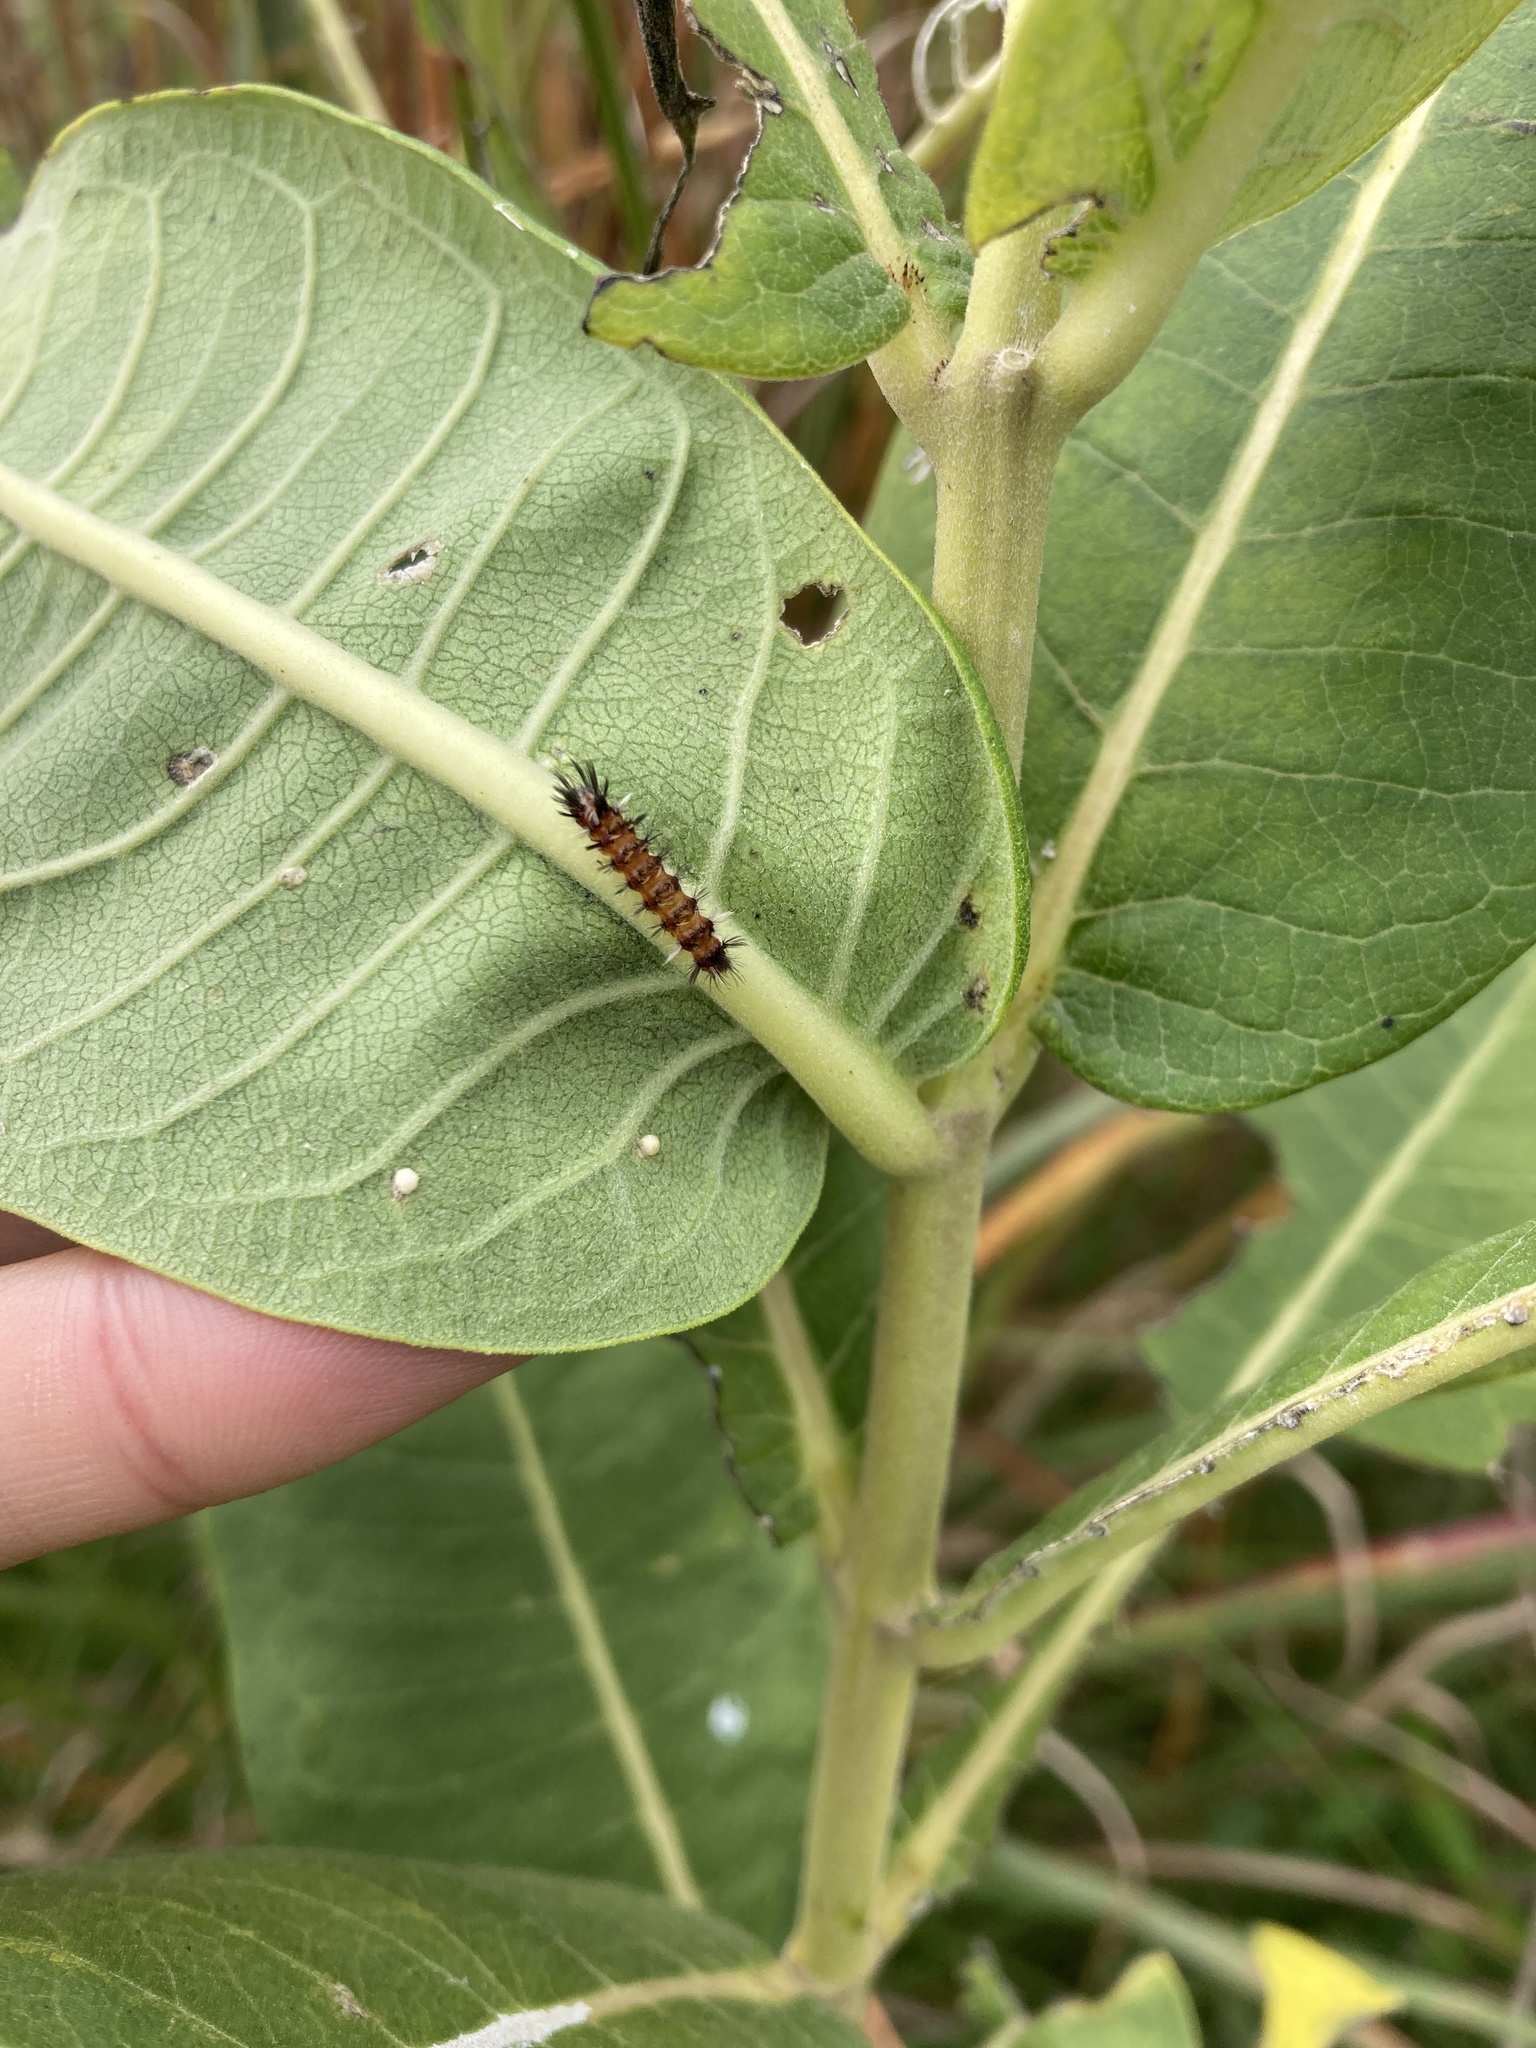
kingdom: Animalia
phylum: Arthropoda
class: Insecta
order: Lepidoptera
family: Erebidae
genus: Euchaetes
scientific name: Euchaetes egle
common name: Milkweed tussock moth
